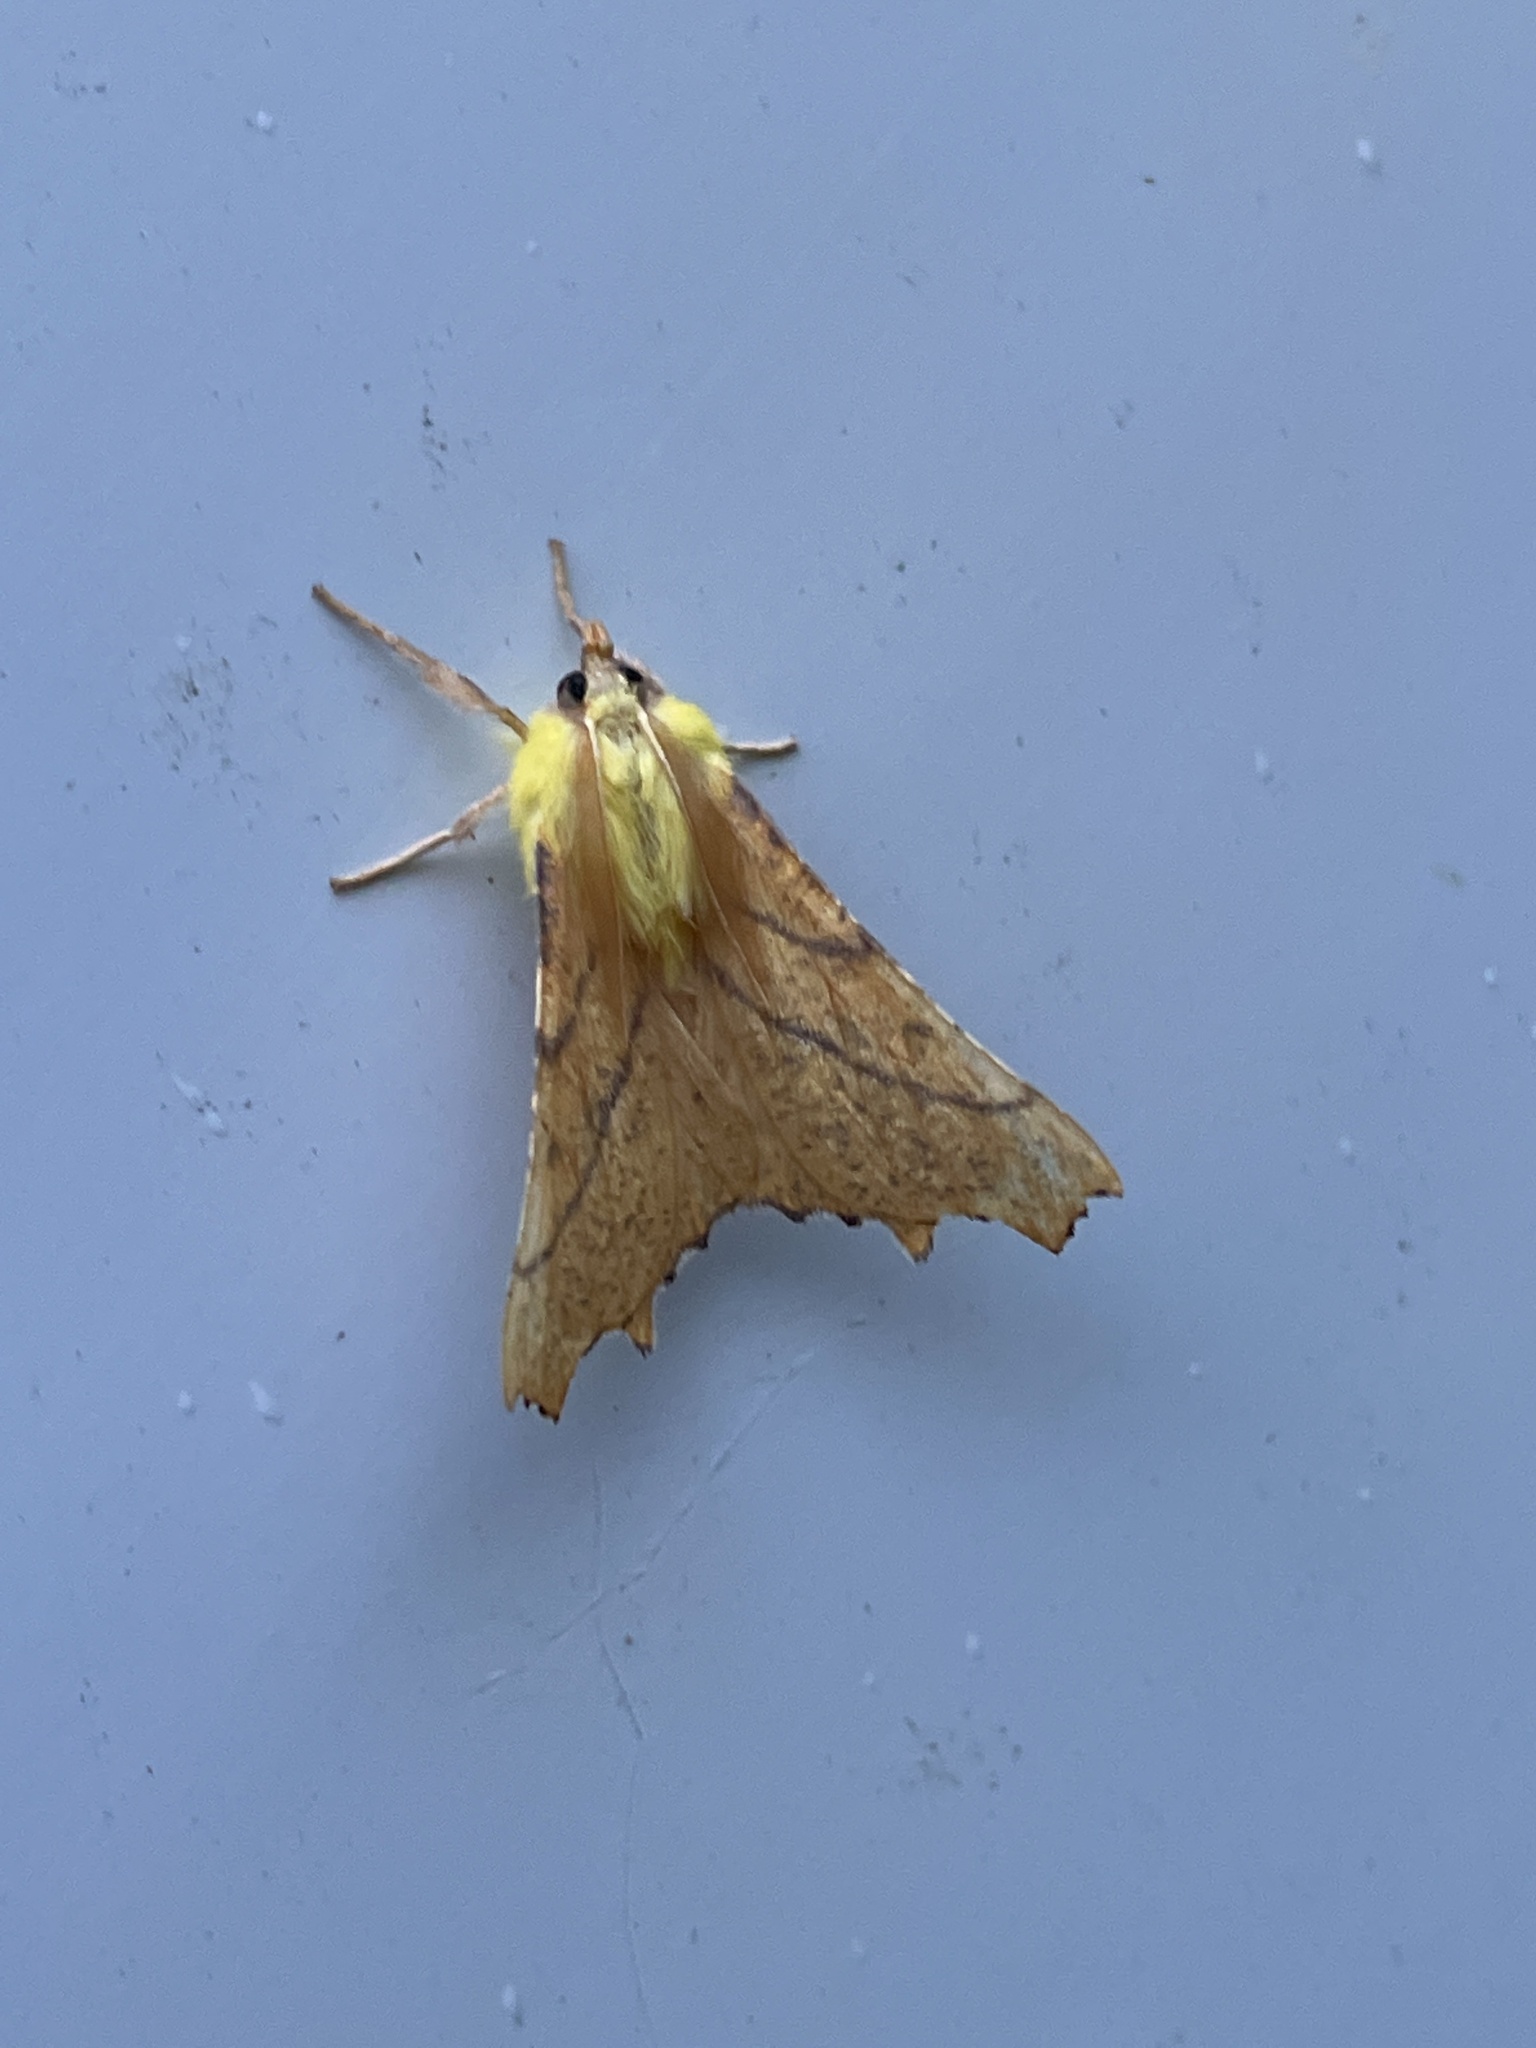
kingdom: Animalia
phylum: Arthropoda
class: Insecta
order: Lepidoptera
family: Geometridae
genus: Ennomos
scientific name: Ennomos alniaria
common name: Canary-shouldered thorn
